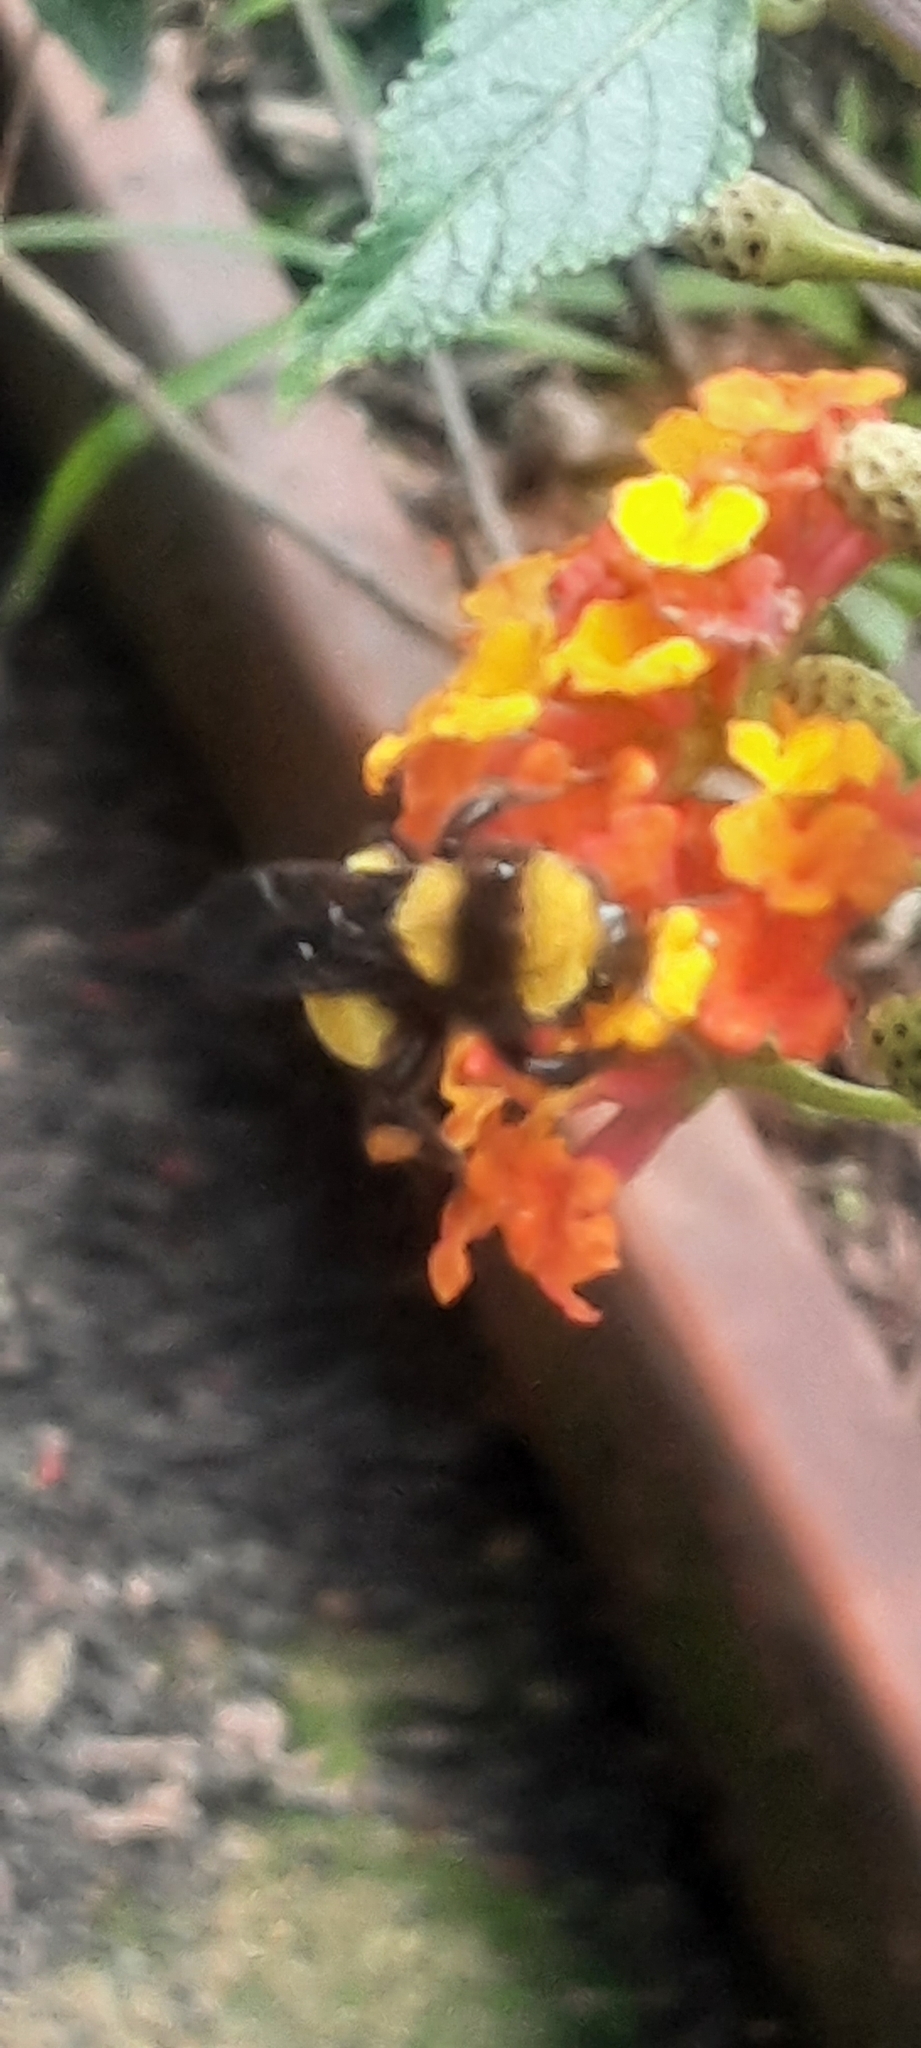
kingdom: Animalia
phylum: Arthropoda
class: Insecta
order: Hymenoptera
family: Apidae
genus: Bombus
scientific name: Bombus sonorus
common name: Sonoran bumble bee
